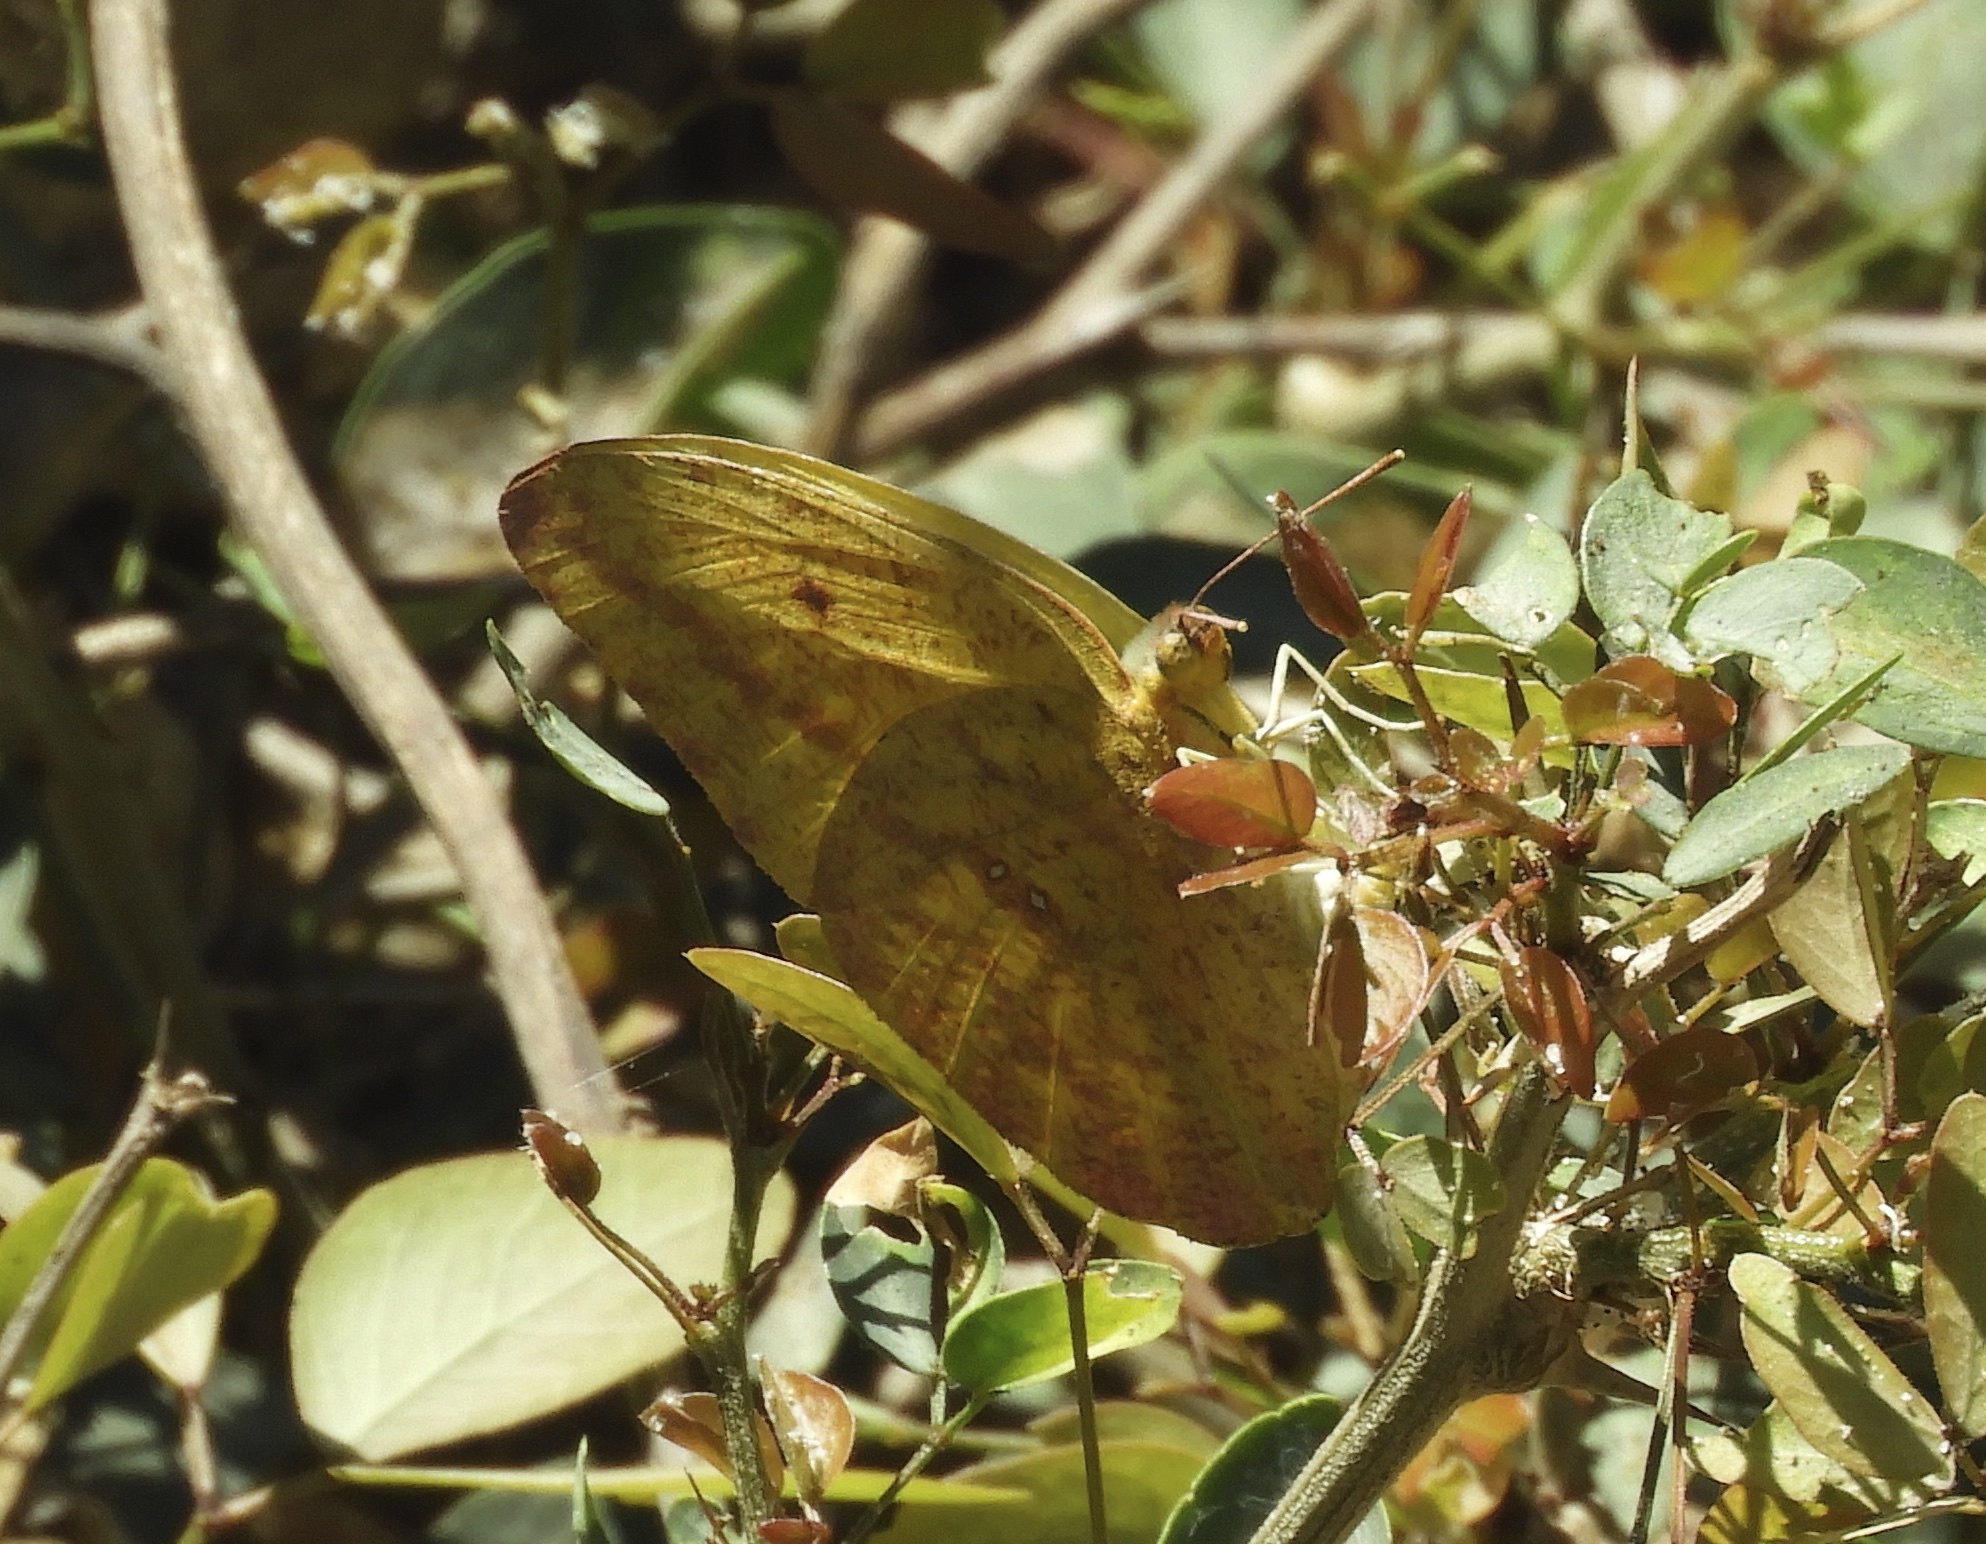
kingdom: Animalia
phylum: Arthropoda
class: Insecta
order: Lepidoptera
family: Pieridae
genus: Phoebis
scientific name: Phoebis agarithe
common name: Large orange sulphur
